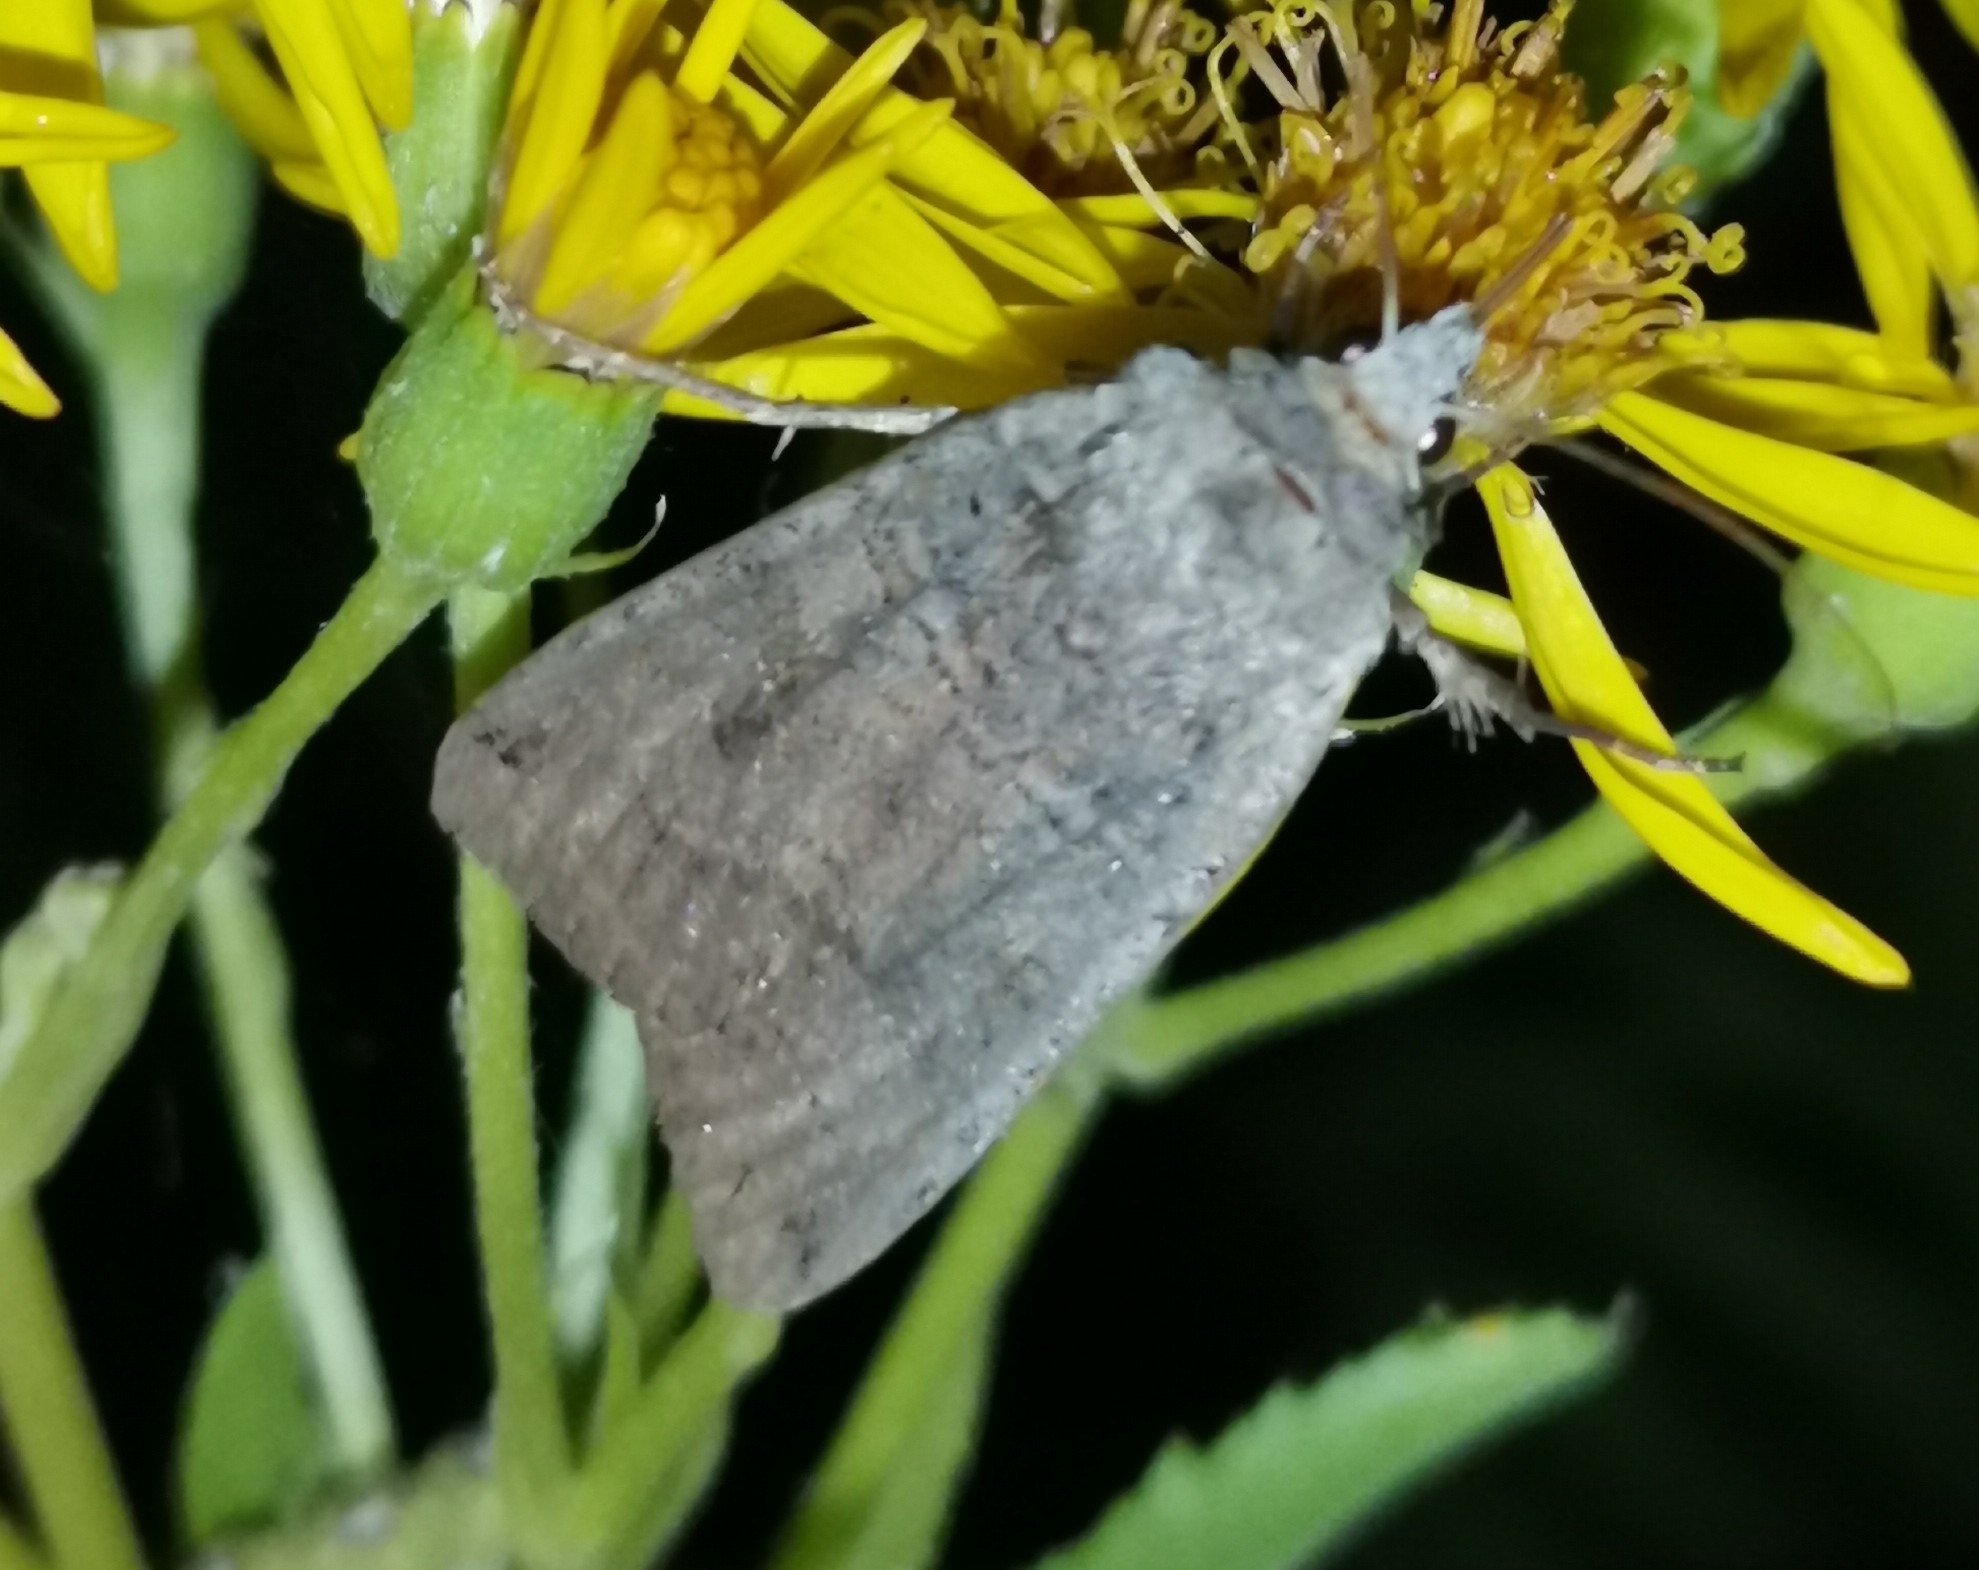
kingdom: Animalia
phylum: Arthropoda
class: Insecta
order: Lepidoptera
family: Noctuidae
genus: Xestia
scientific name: Xestia baja
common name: Dotted clay
